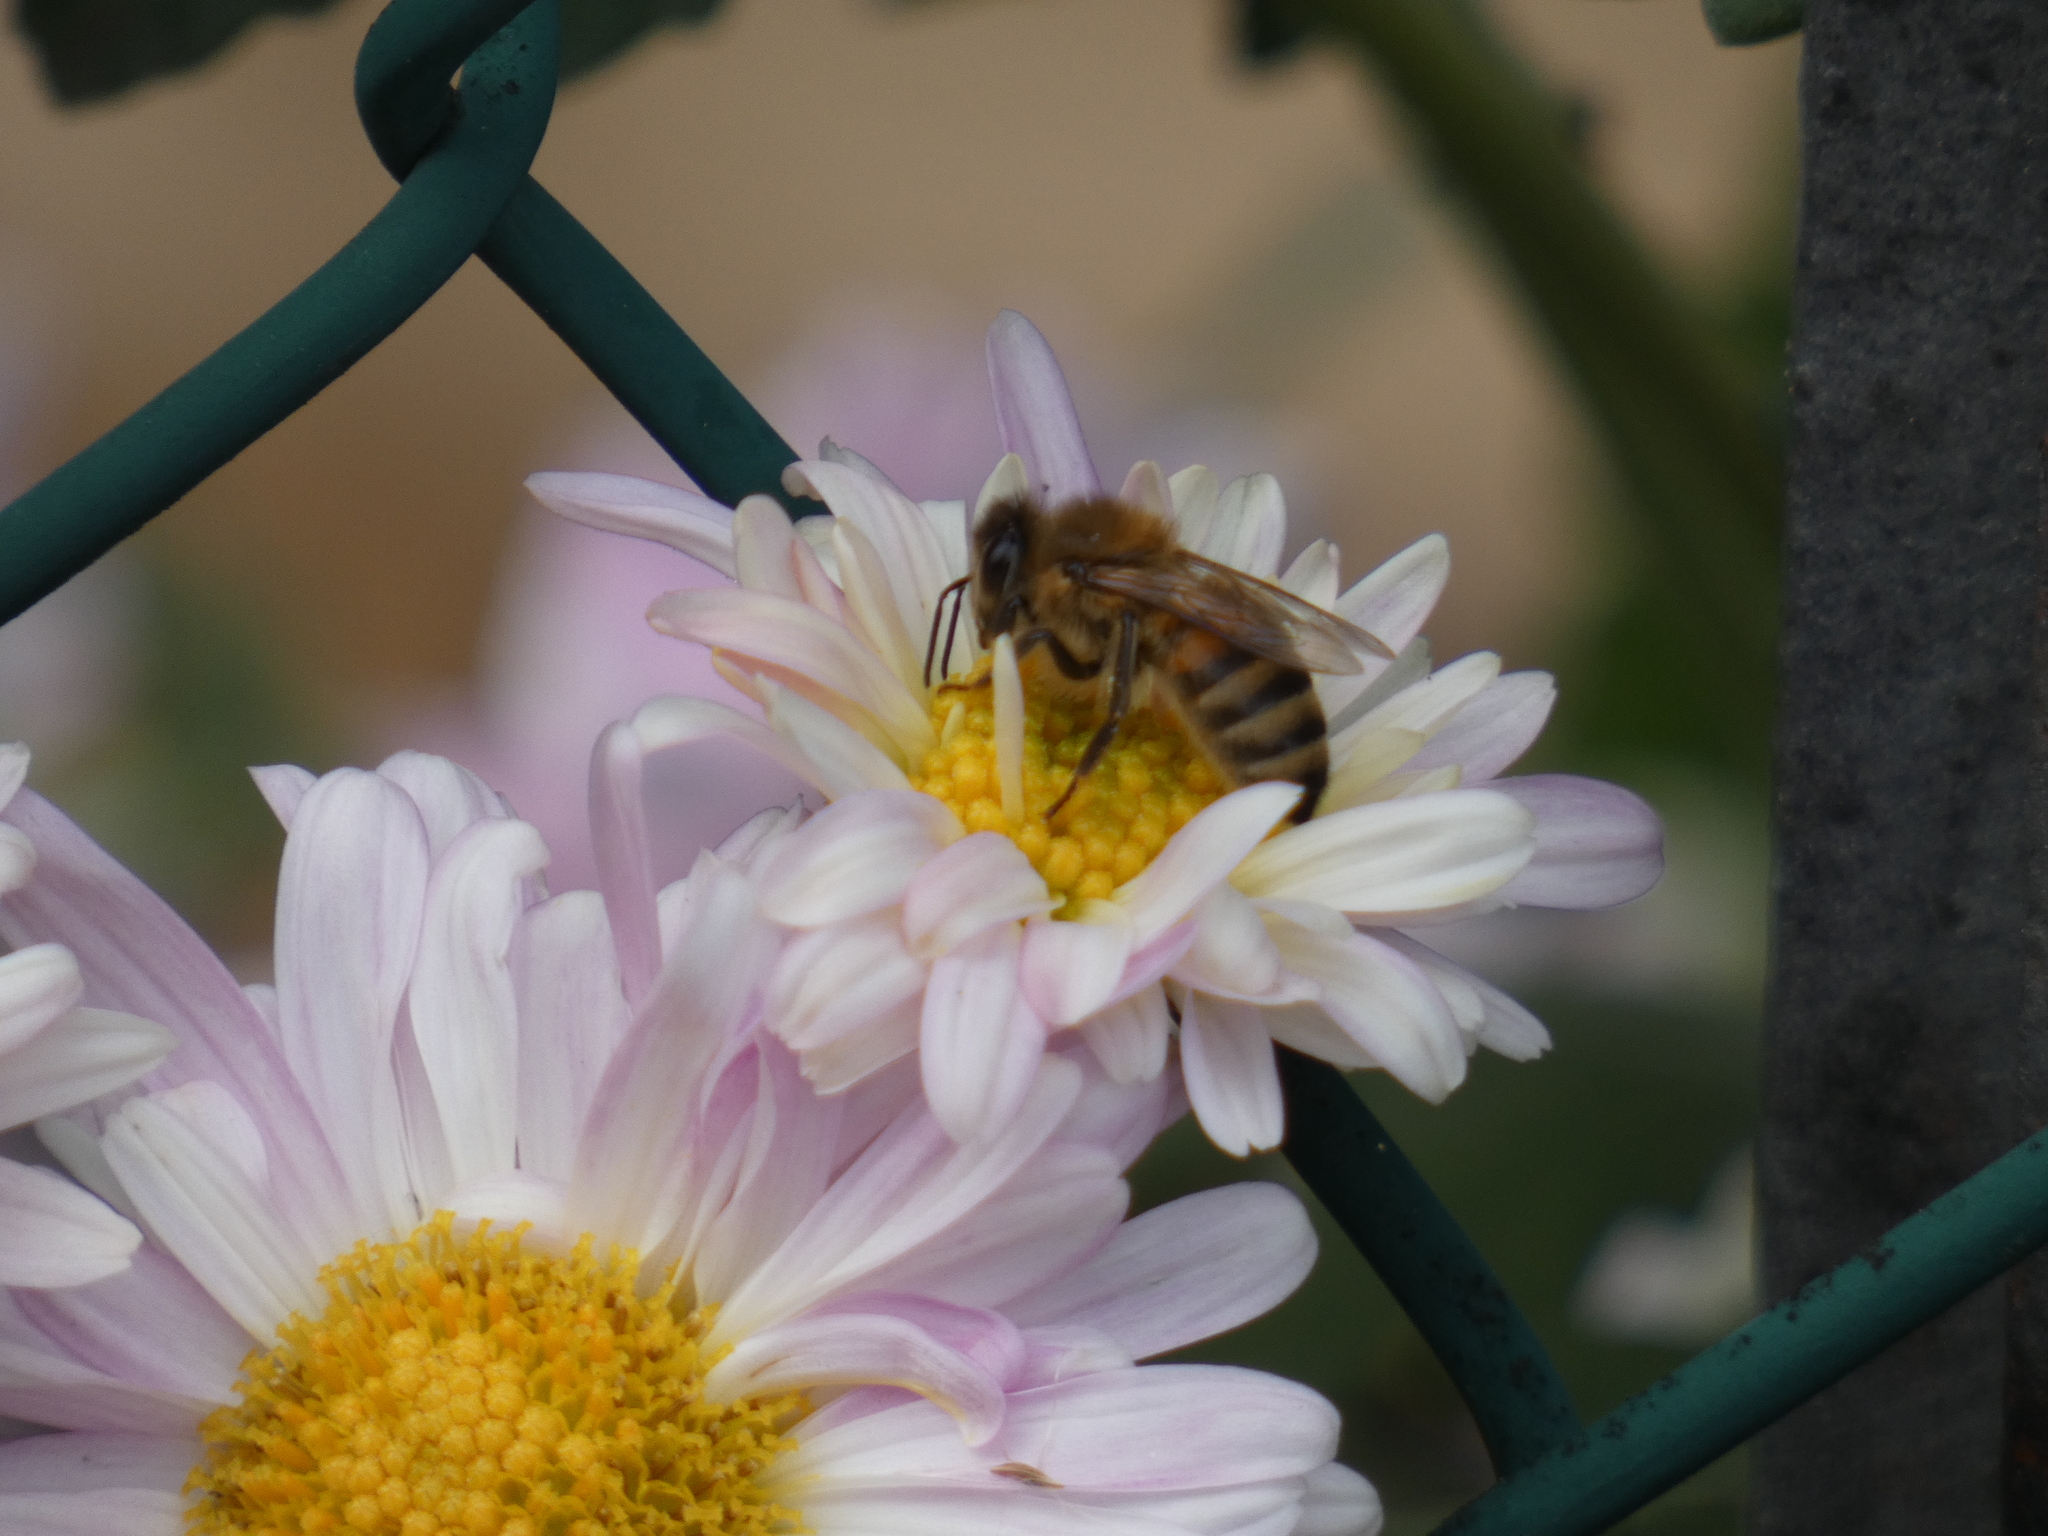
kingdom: Animalia
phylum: Arthropoda
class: Insecta
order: Hymenoptera
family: Apidae
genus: Apis
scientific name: Apis mellifera
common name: Honey bee
